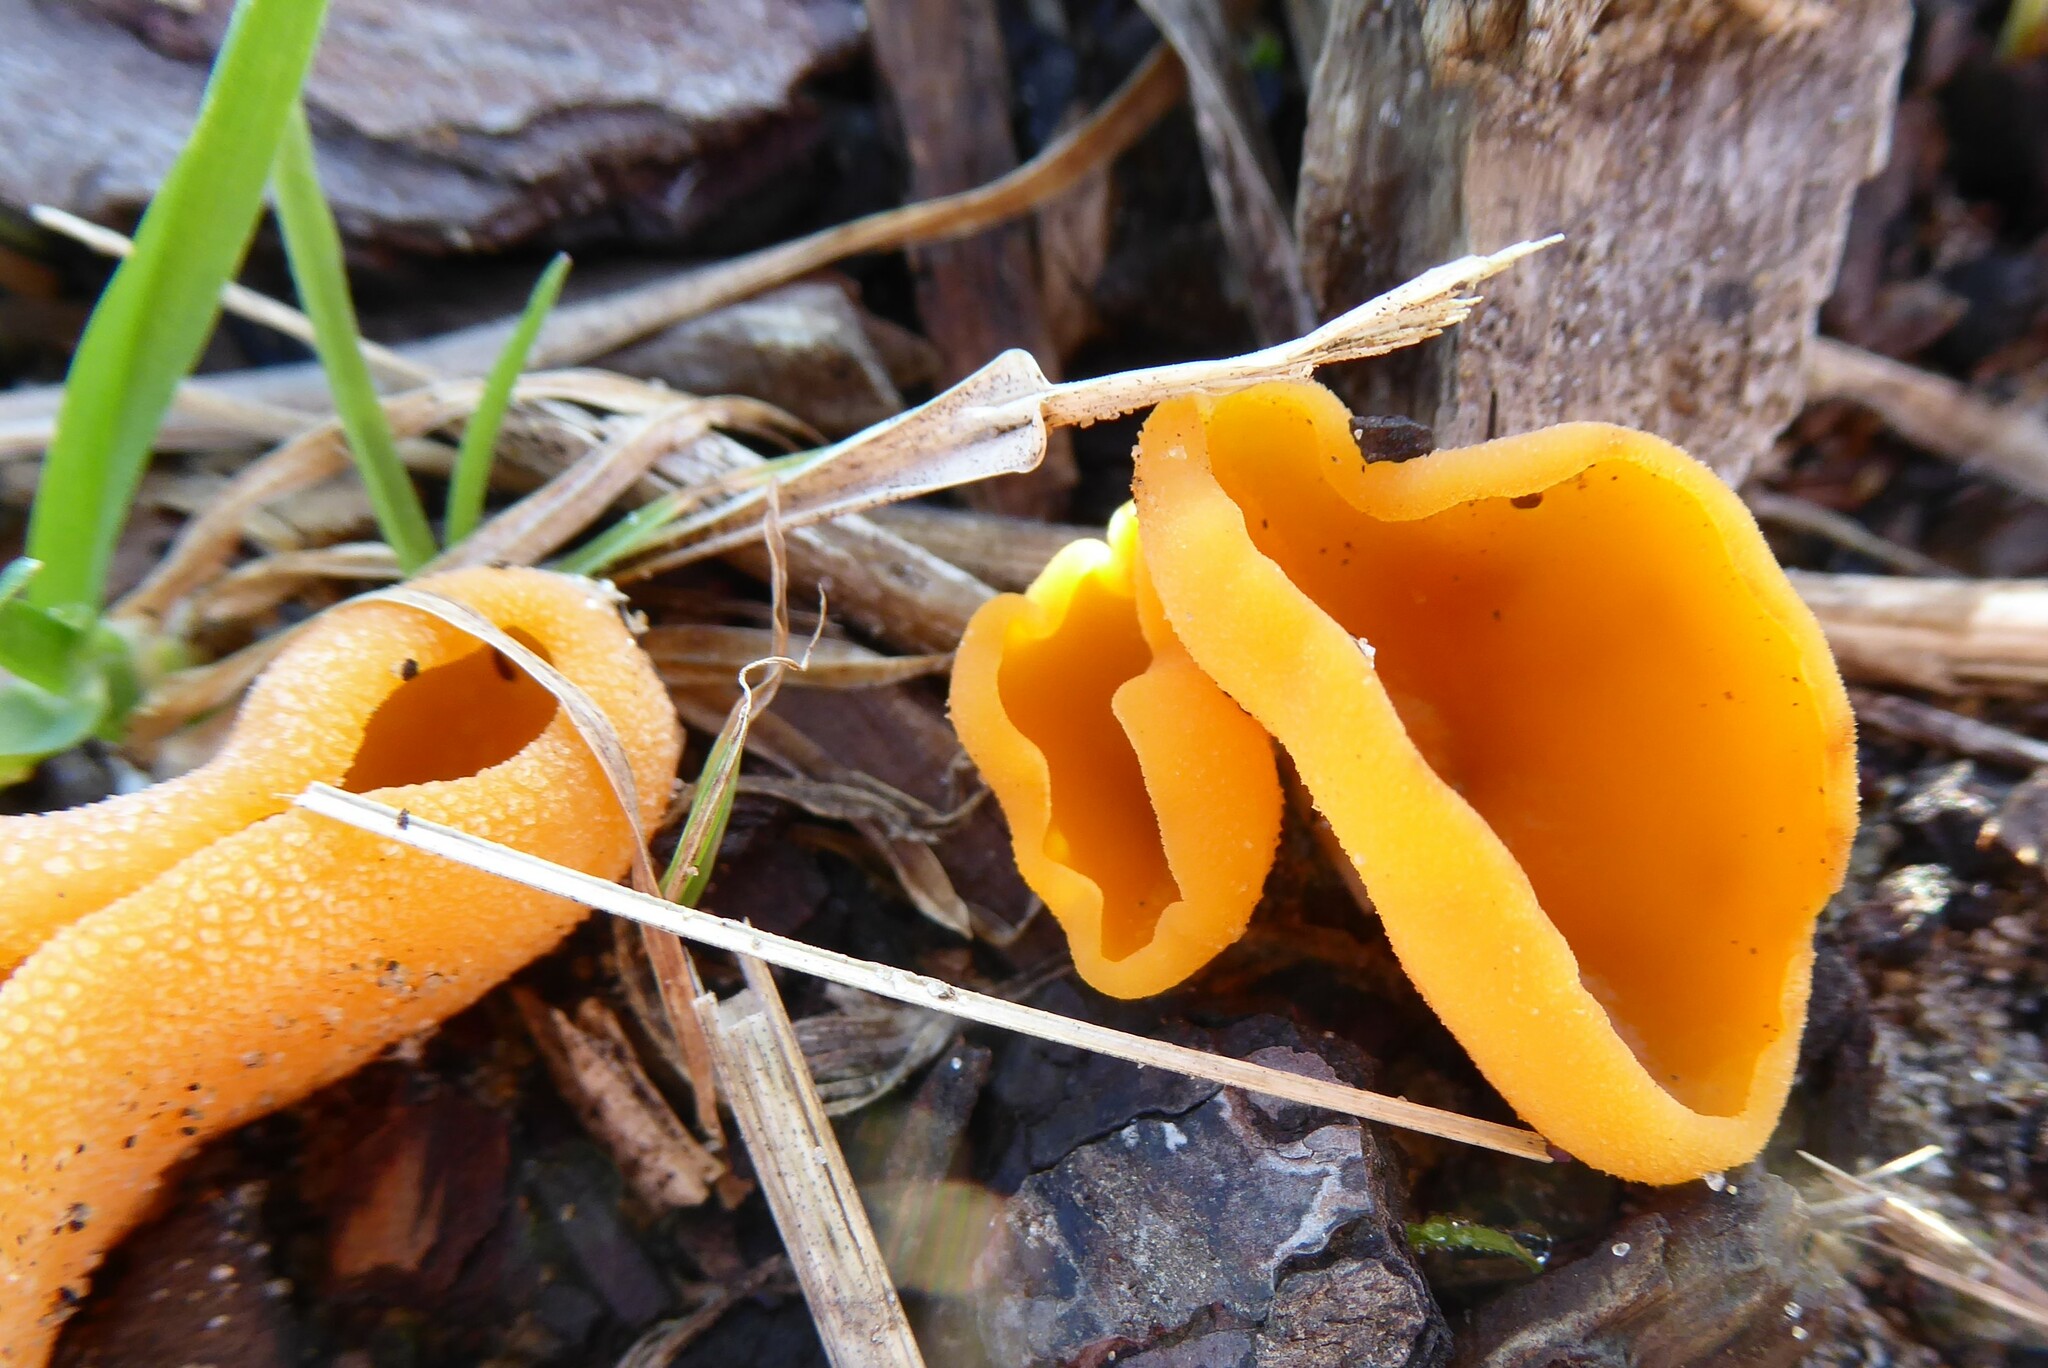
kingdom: Fungi
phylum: Ascomycota
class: Pezizomycetes
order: Pezizales
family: Pyronemataceae
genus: Aleuria
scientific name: Aleuria aurantia
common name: Orange peel fungus
